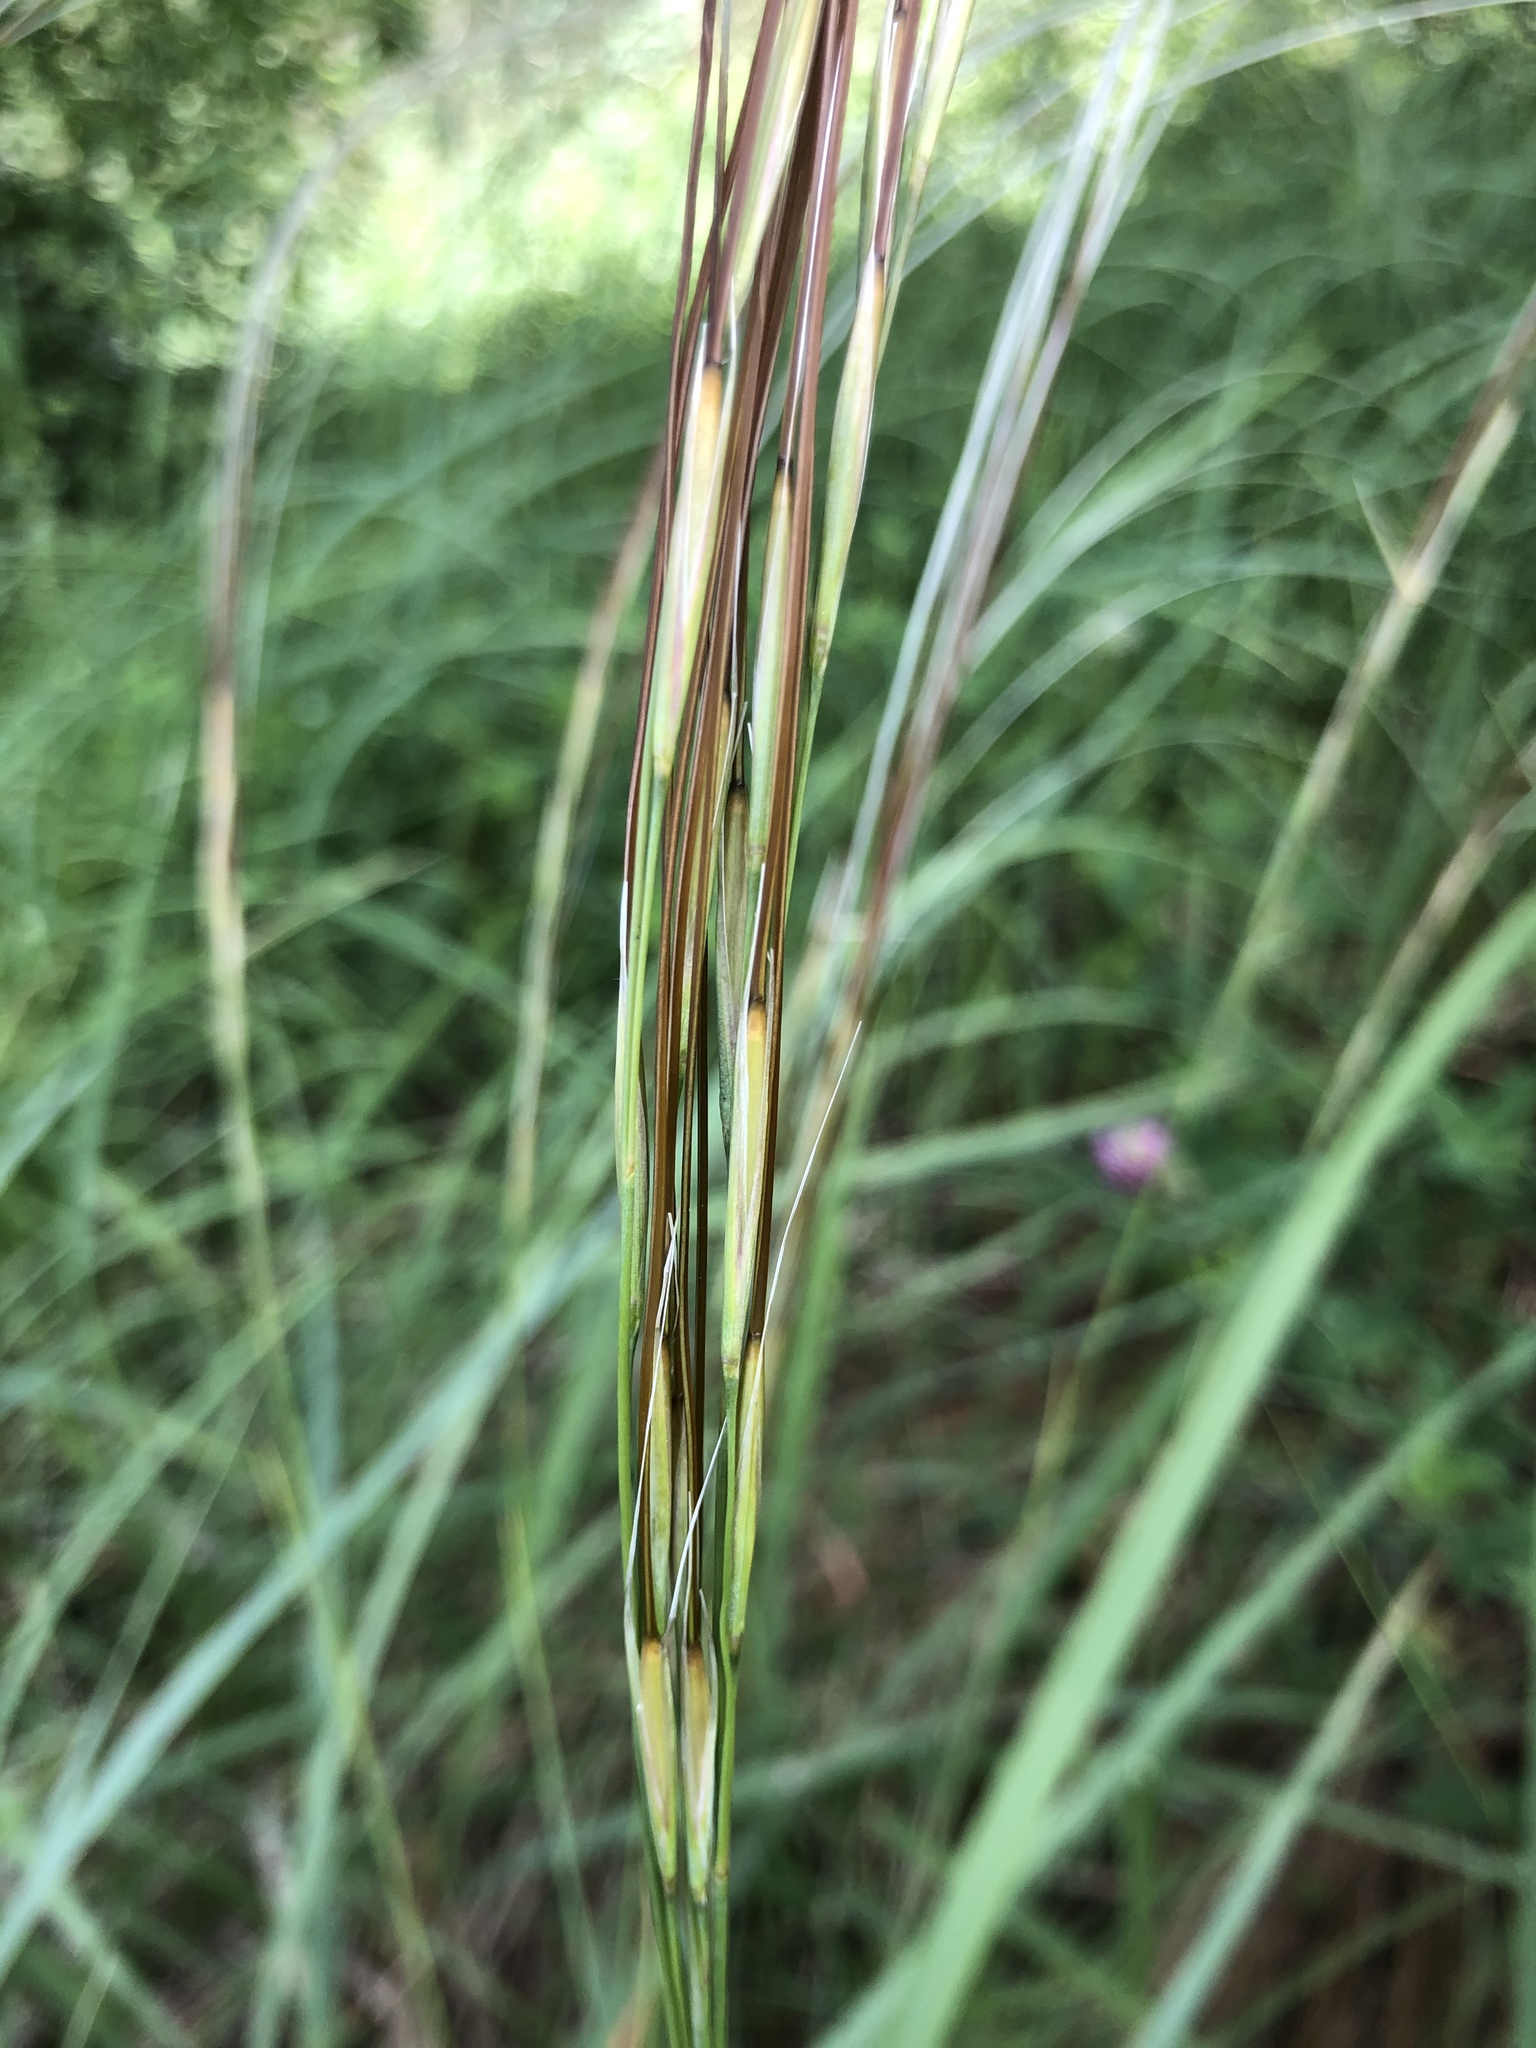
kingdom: Plantae
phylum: Tracheophyta
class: Liliopsida
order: Poales
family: Poaceae
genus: Stipa
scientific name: Stipa pennata
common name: European feather grass
